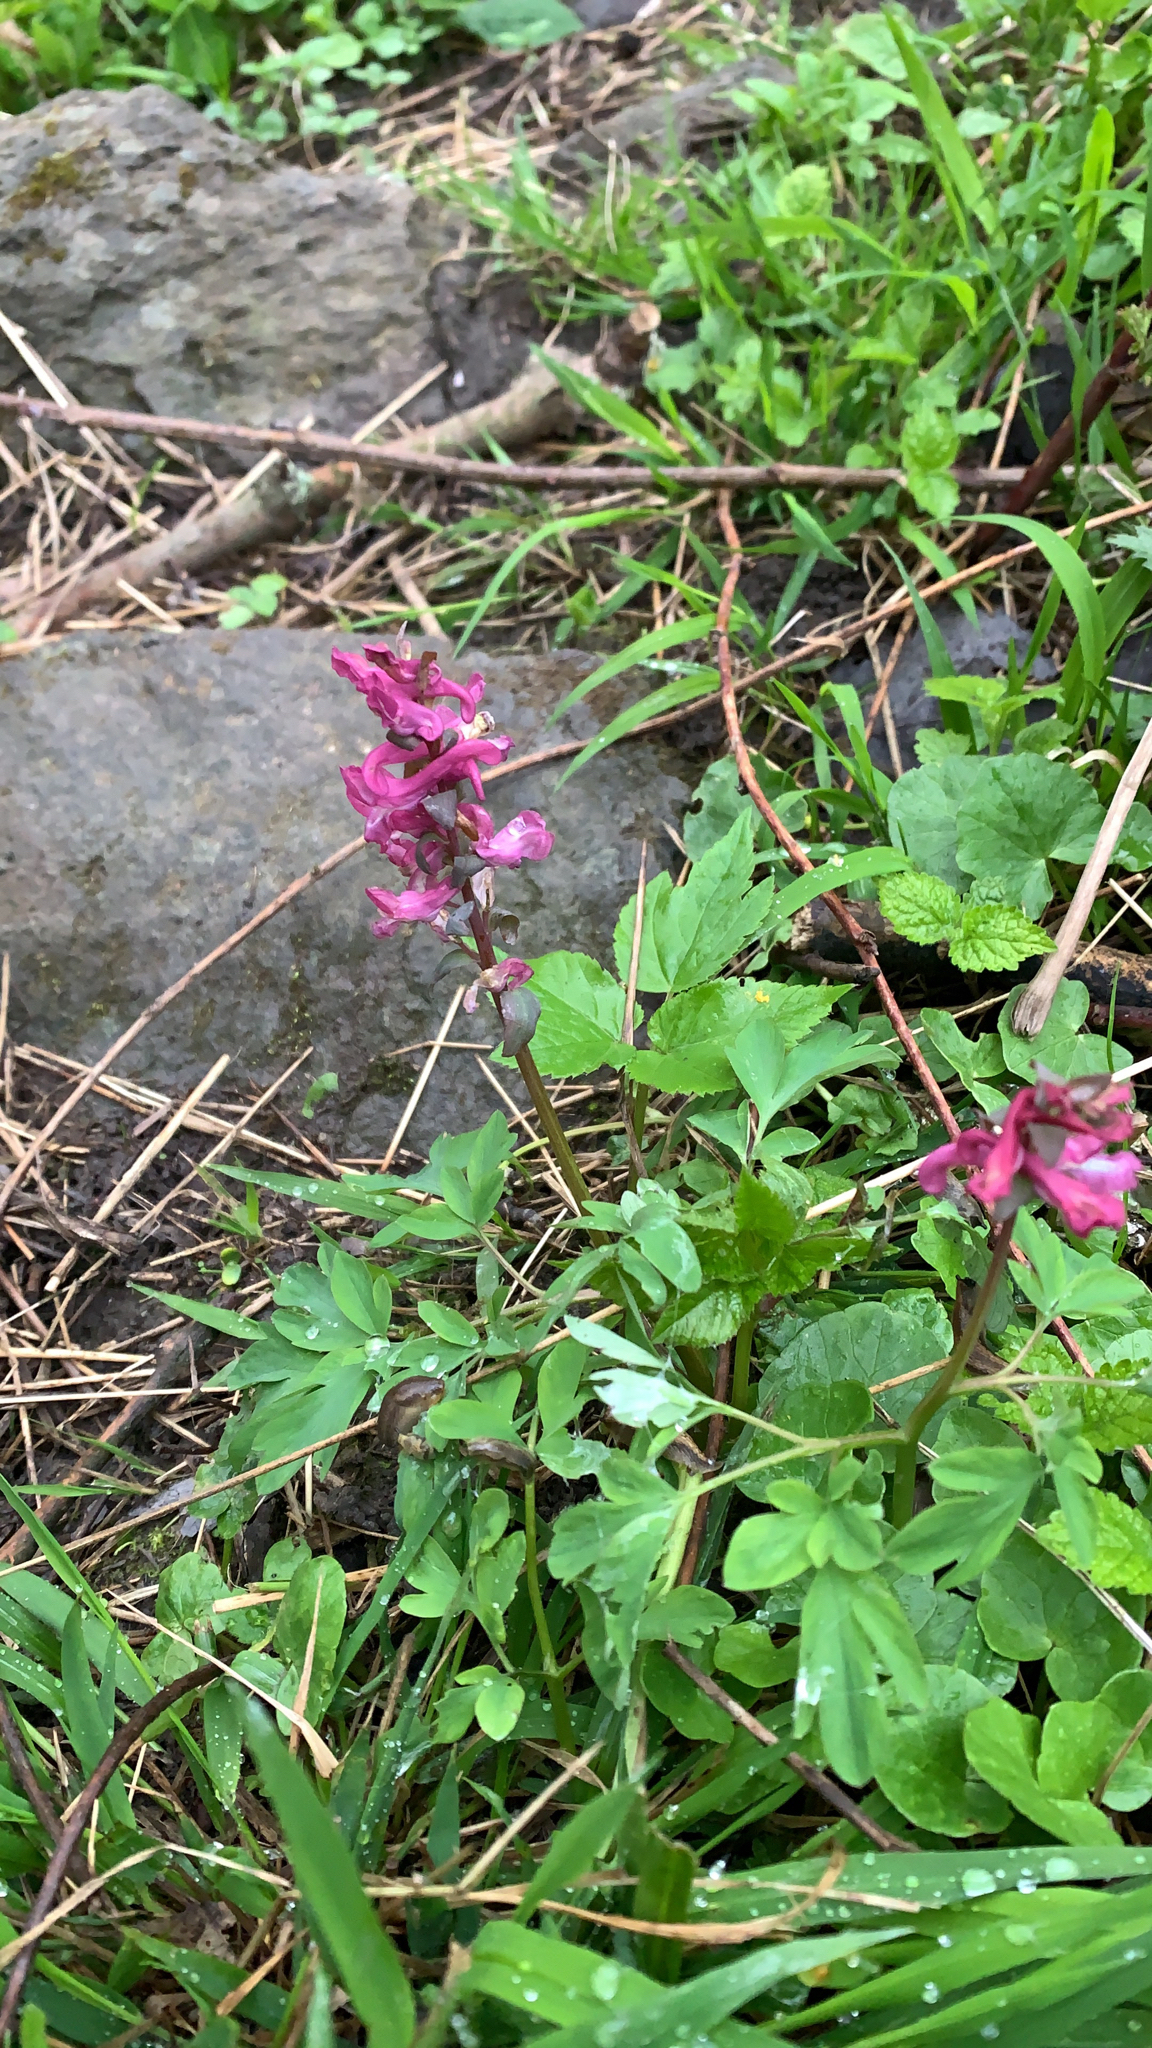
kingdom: Plantae
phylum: Tracheophyta
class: Magnoliopsida
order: Ranunculales
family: Papaveraceae
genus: Corydalis
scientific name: Corydalis cava
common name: Hollowroot
